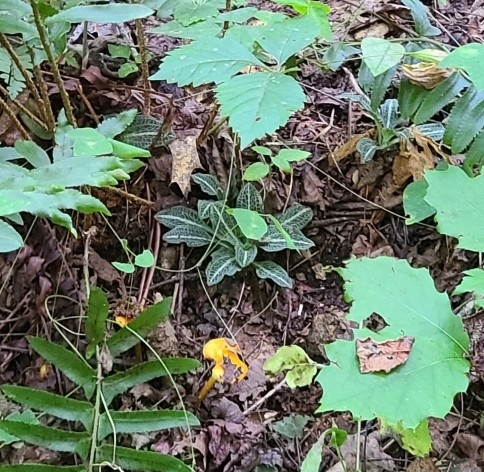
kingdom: Plantae
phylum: Tracheophyta
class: Liliopsida
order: Asparagales
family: Orchidaceae
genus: Goodyera
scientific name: Goodyera pubescens
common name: Downy rattlesnake-plantain
